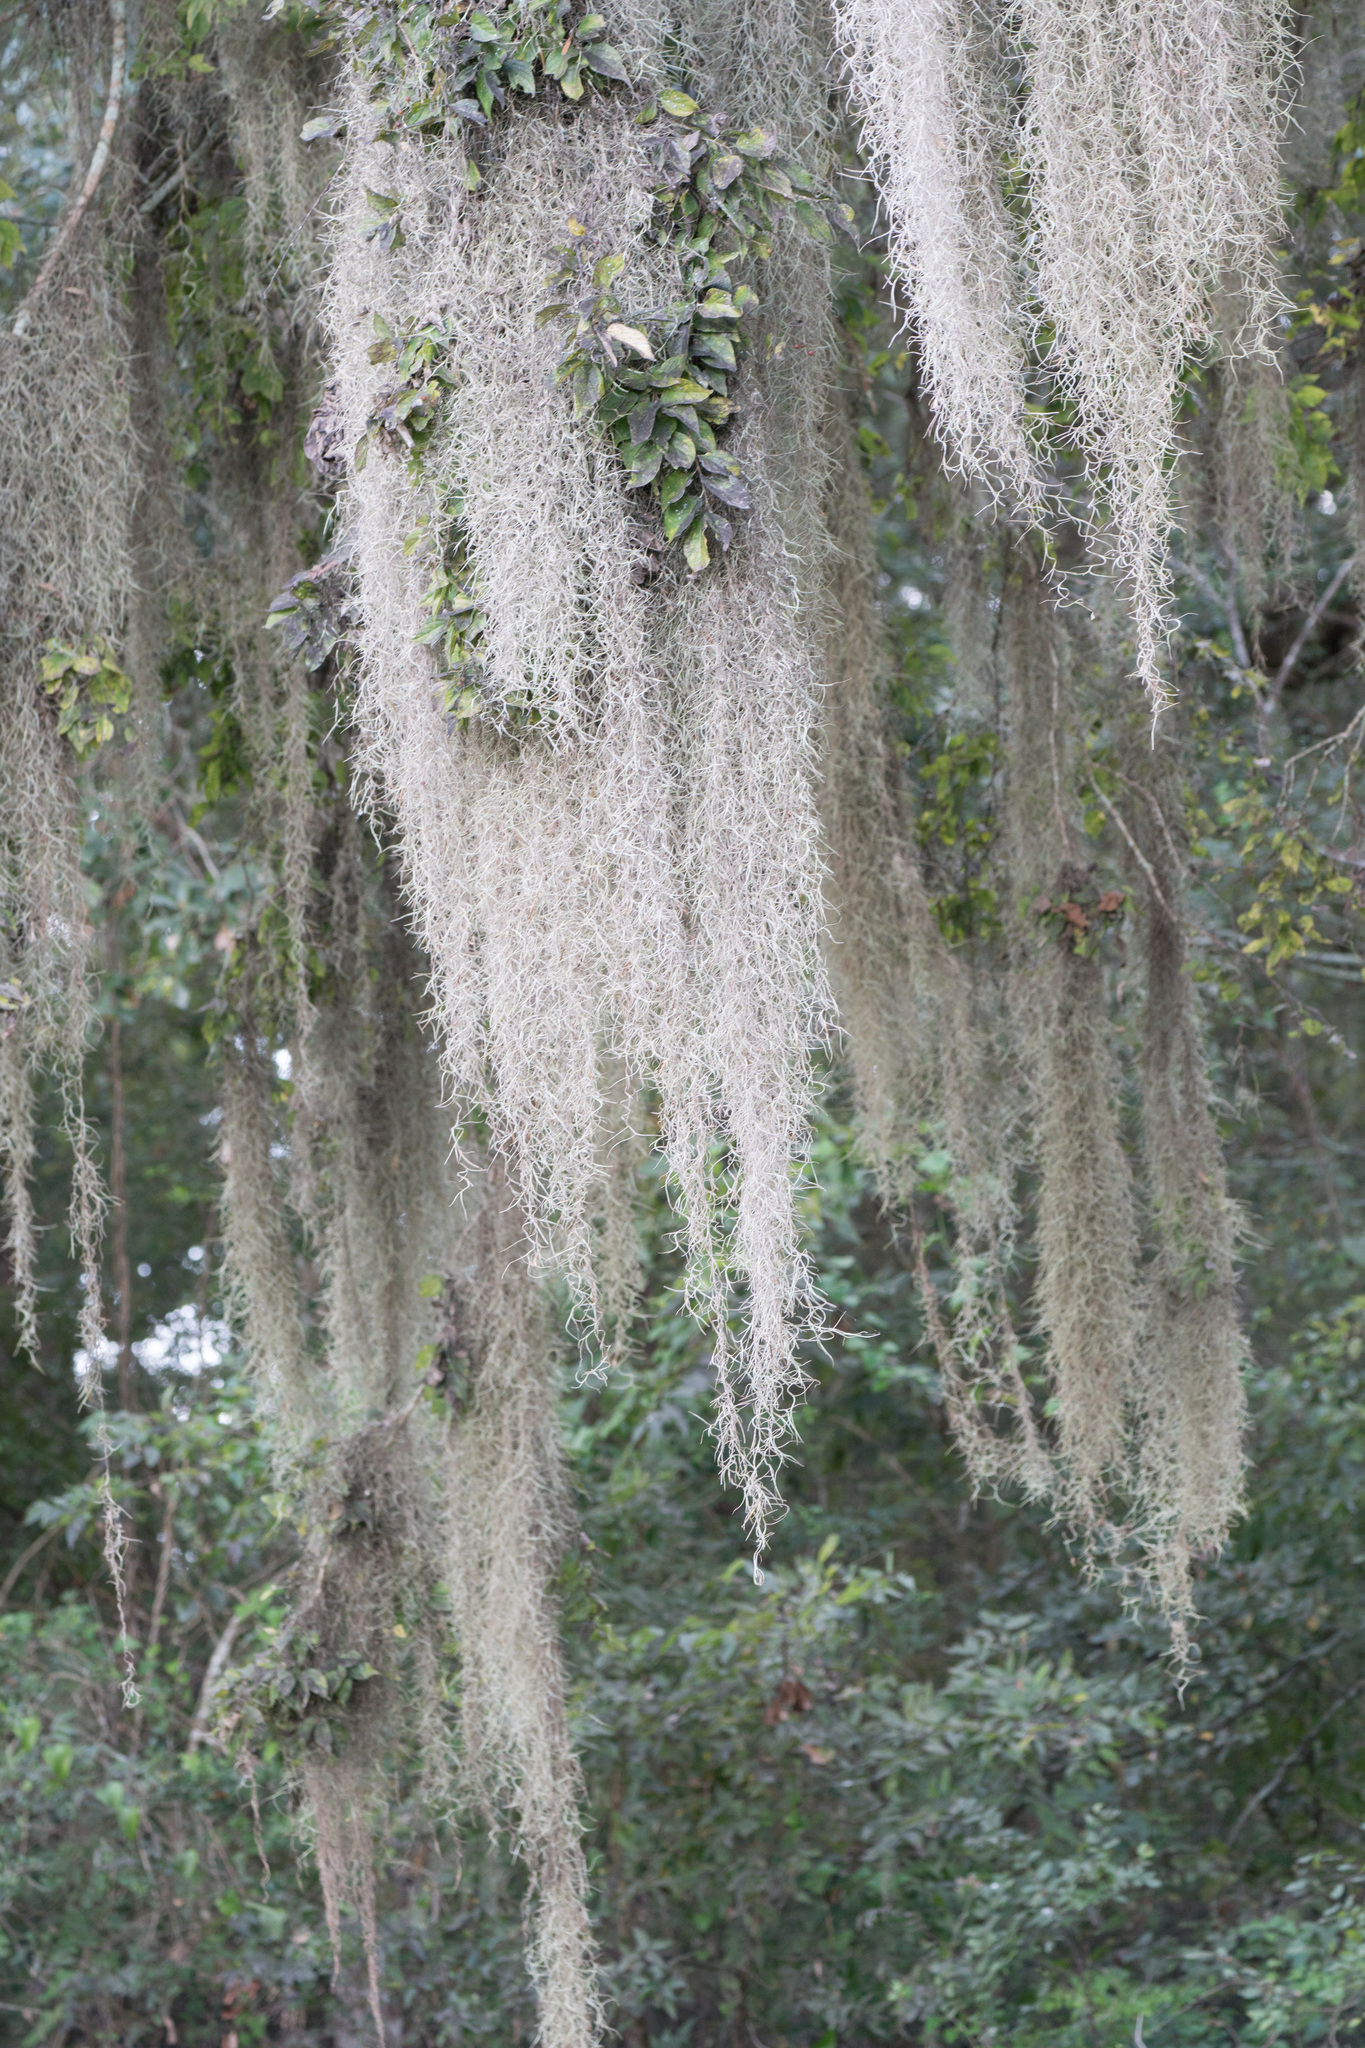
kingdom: Plantae
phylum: Tracheophyta
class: Liliopsida
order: Poales
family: Bromeliaceae
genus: Tillandsia
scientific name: Tillandsia usneoides
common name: Spanish moss
